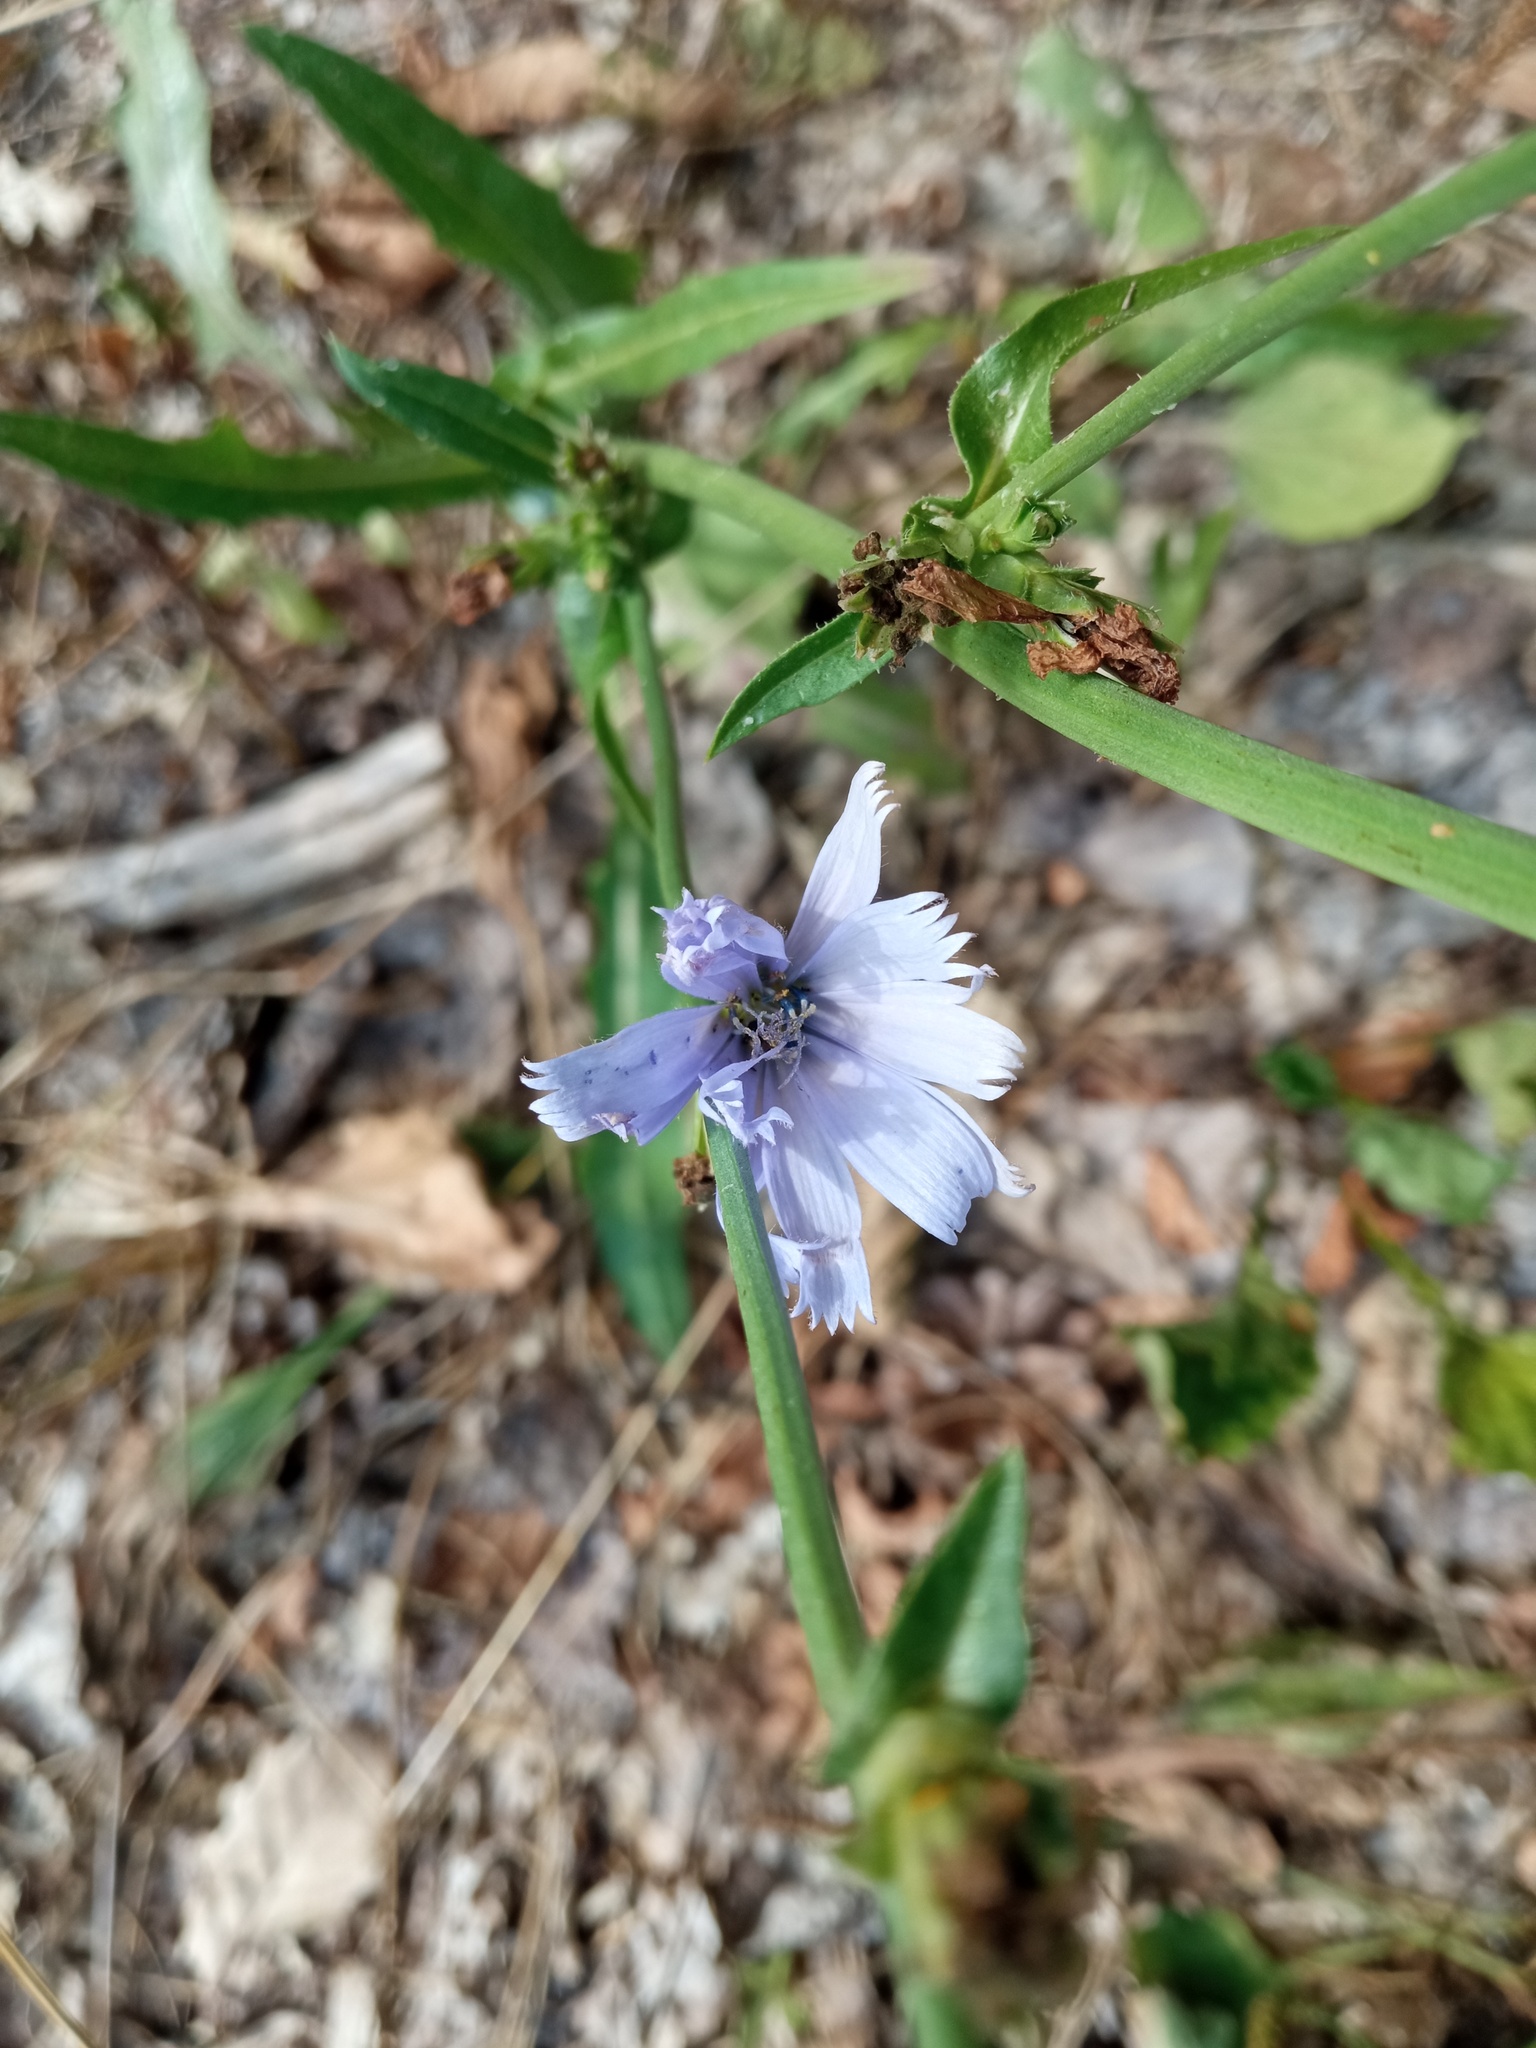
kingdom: Plantae
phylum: Tracheophyta
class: Magnoliopsida
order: Asterales
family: Asteraceae
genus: Cichorium
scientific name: Cichorium intybus
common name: Chicory
